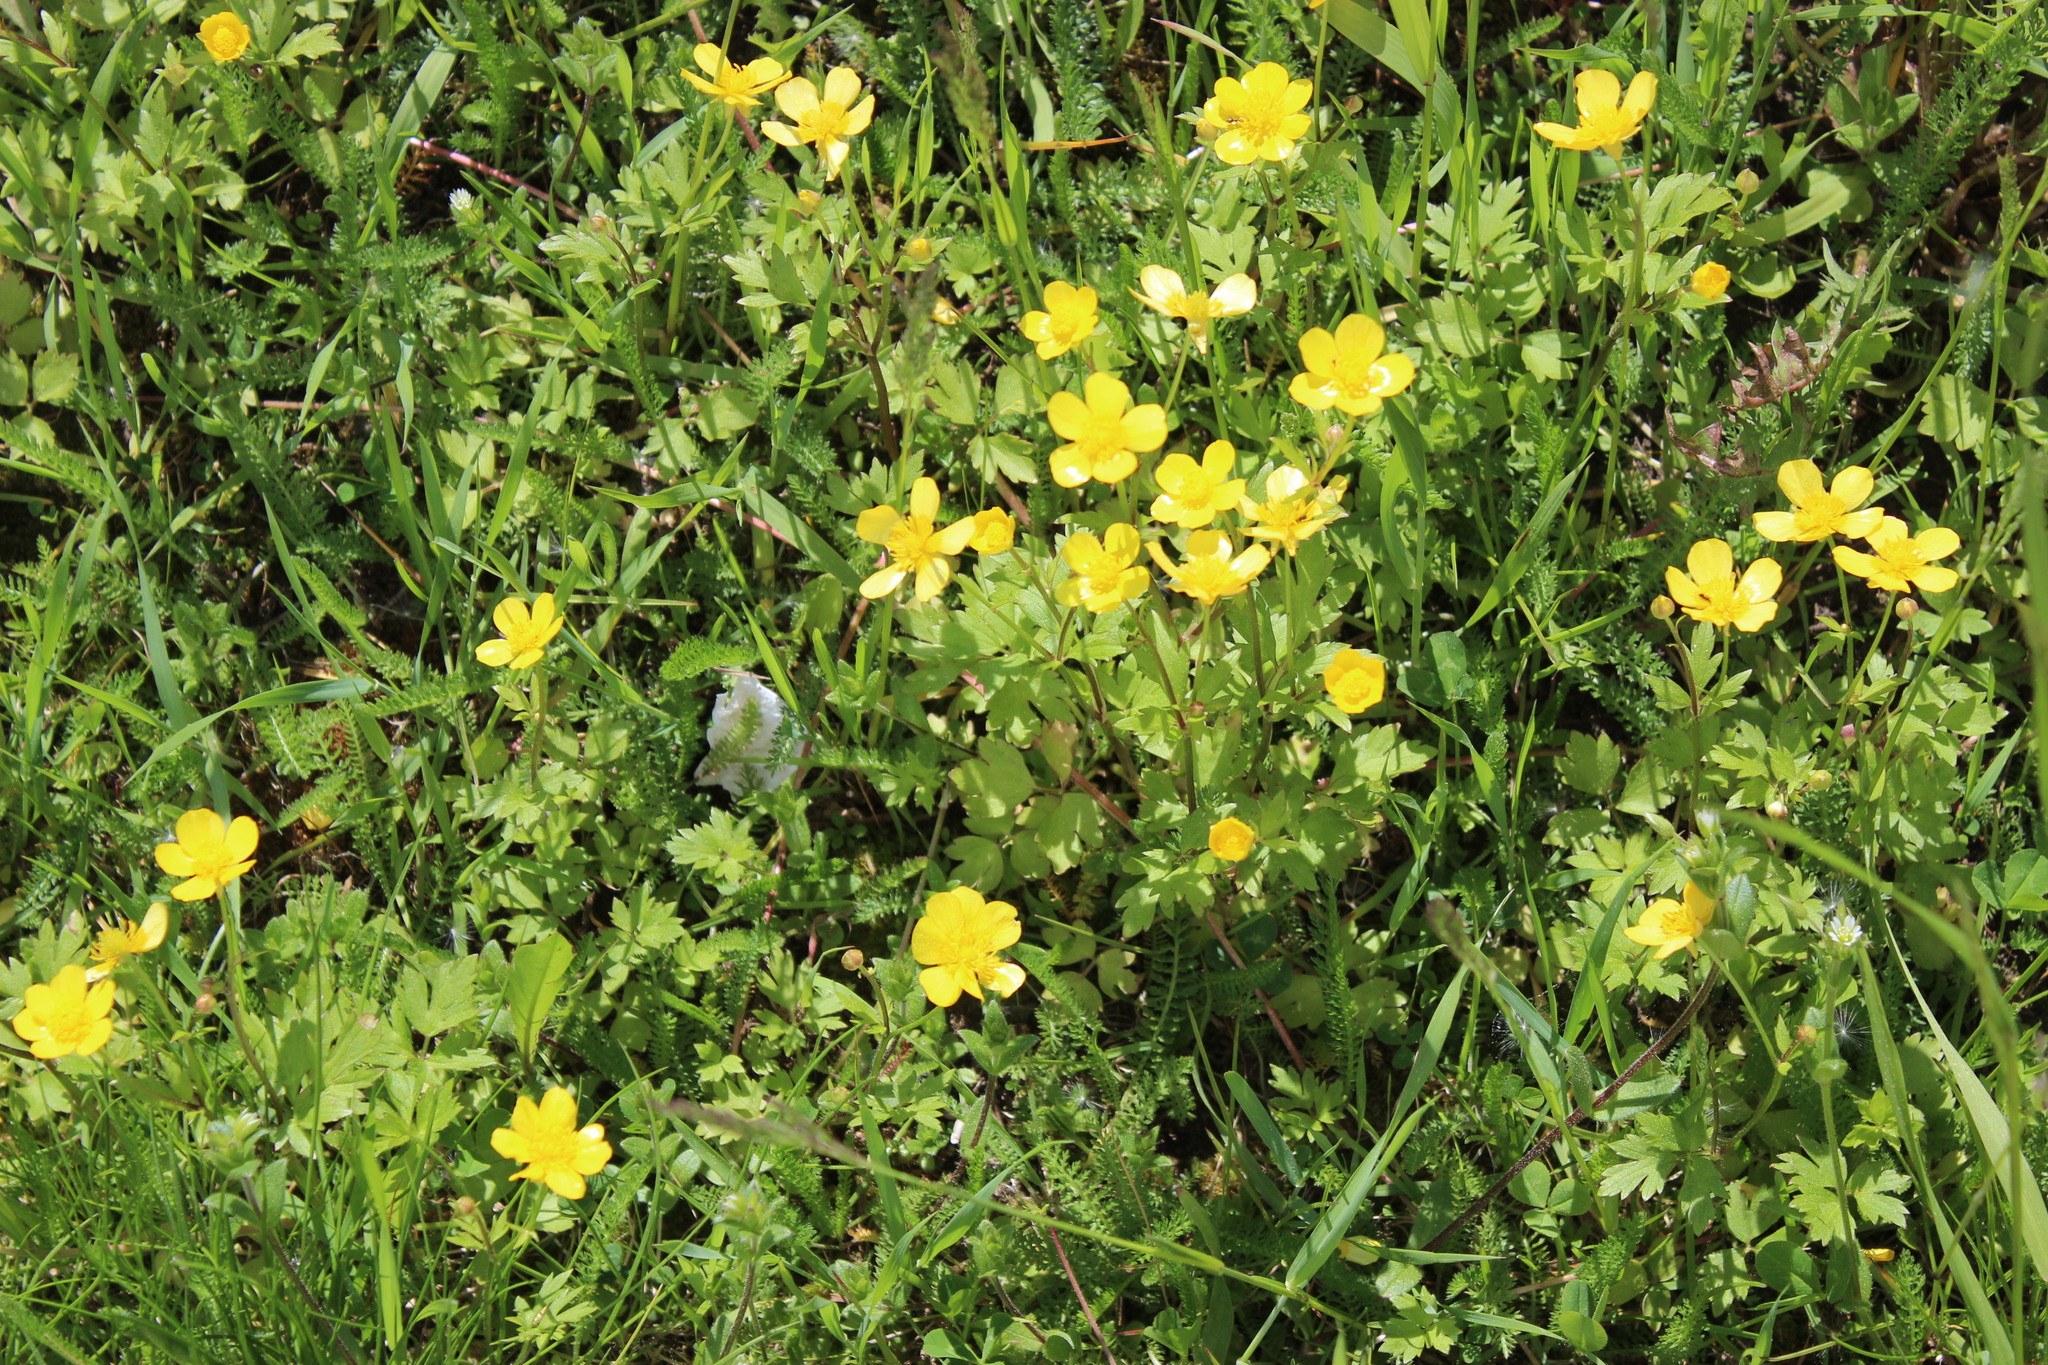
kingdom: Plantae
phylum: Tracheophyta
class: Magnoliopsida
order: Ranunculales
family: Ranunculaceae
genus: Ranunculus
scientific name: Ranunculus repens
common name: Creeping buttercup
